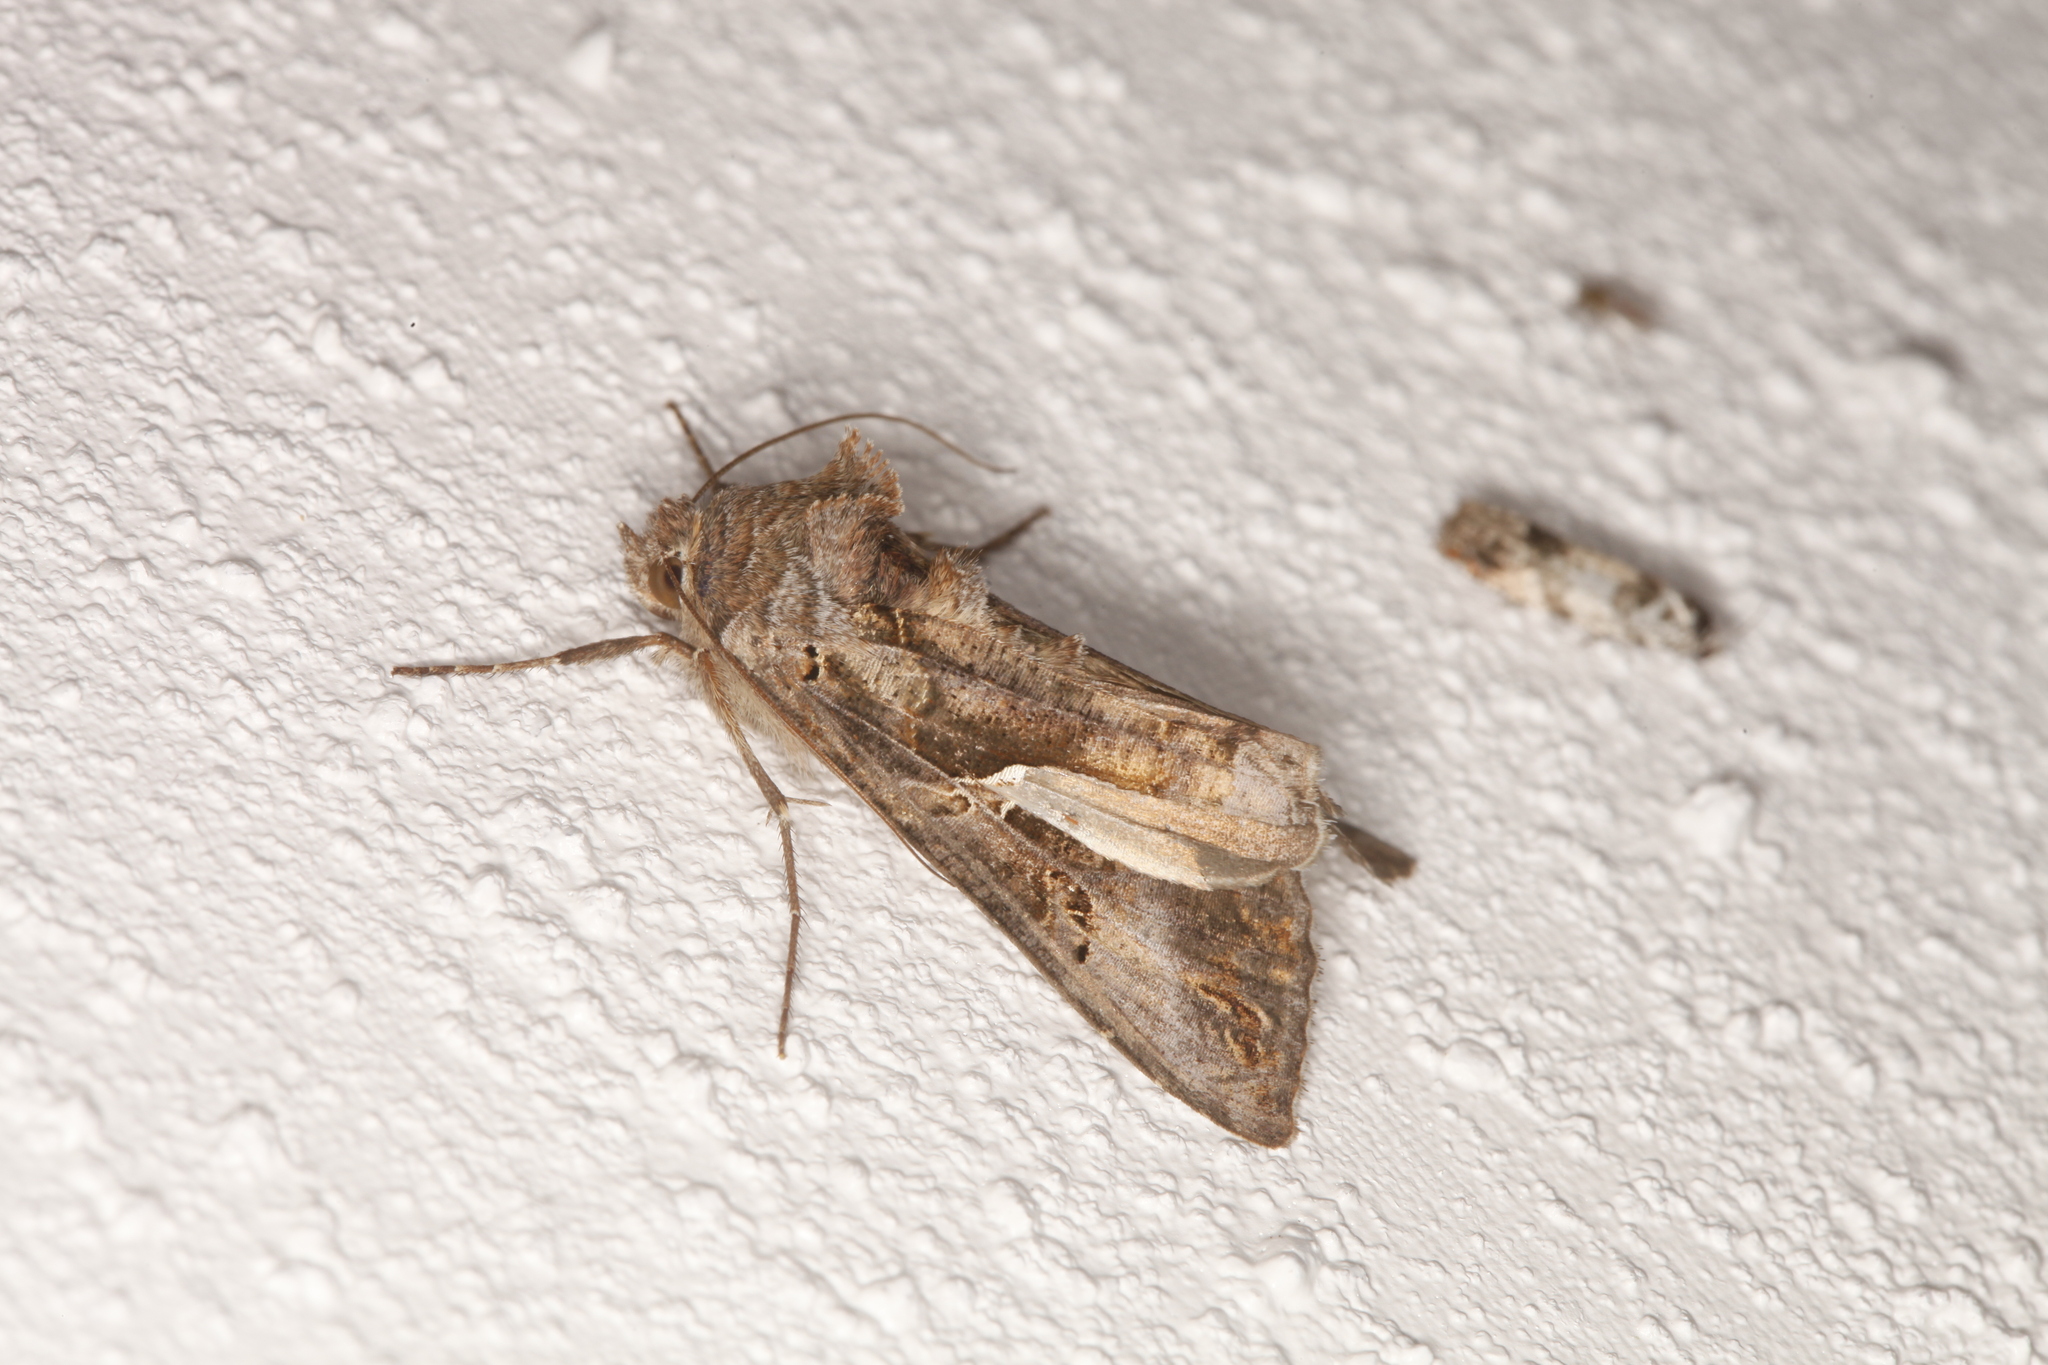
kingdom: Animalia
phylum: Arthropoda
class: Insecta
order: Lepidoptera
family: Noctuidae
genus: Autographa
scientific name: Autographa gamma
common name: Silver y
